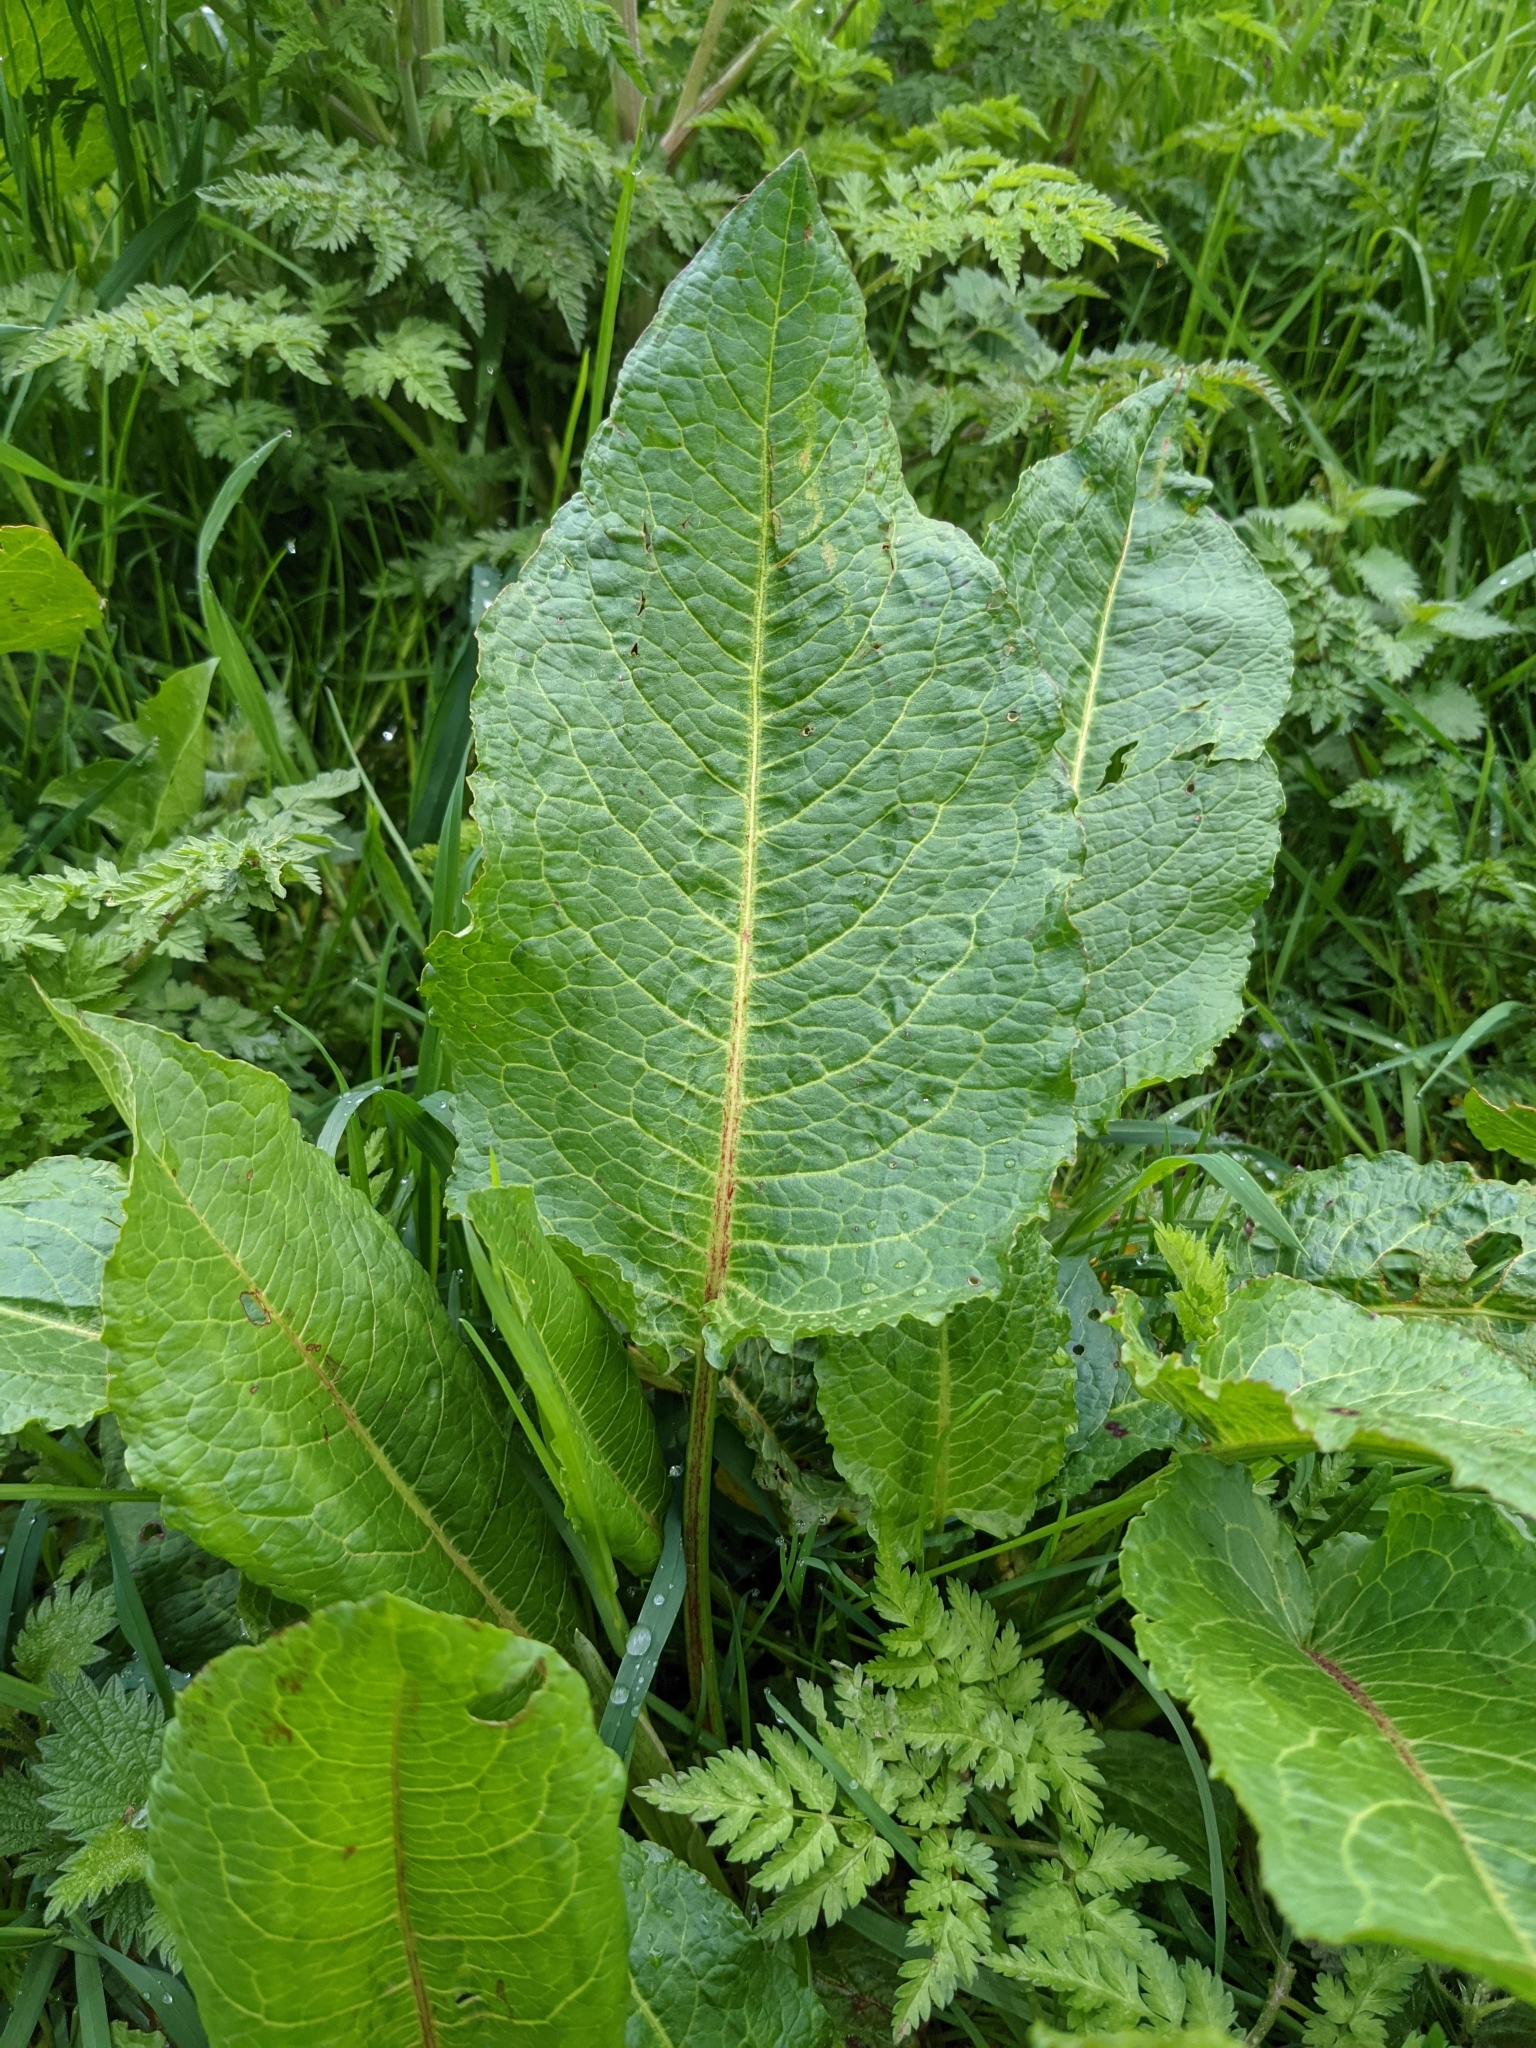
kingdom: Plantae
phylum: Tracheophyta
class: Magnoliopsida
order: Caryophyllales
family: Polygonaceae
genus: Rumex
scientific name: Rumex obtusifolius
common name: Bitter dock
